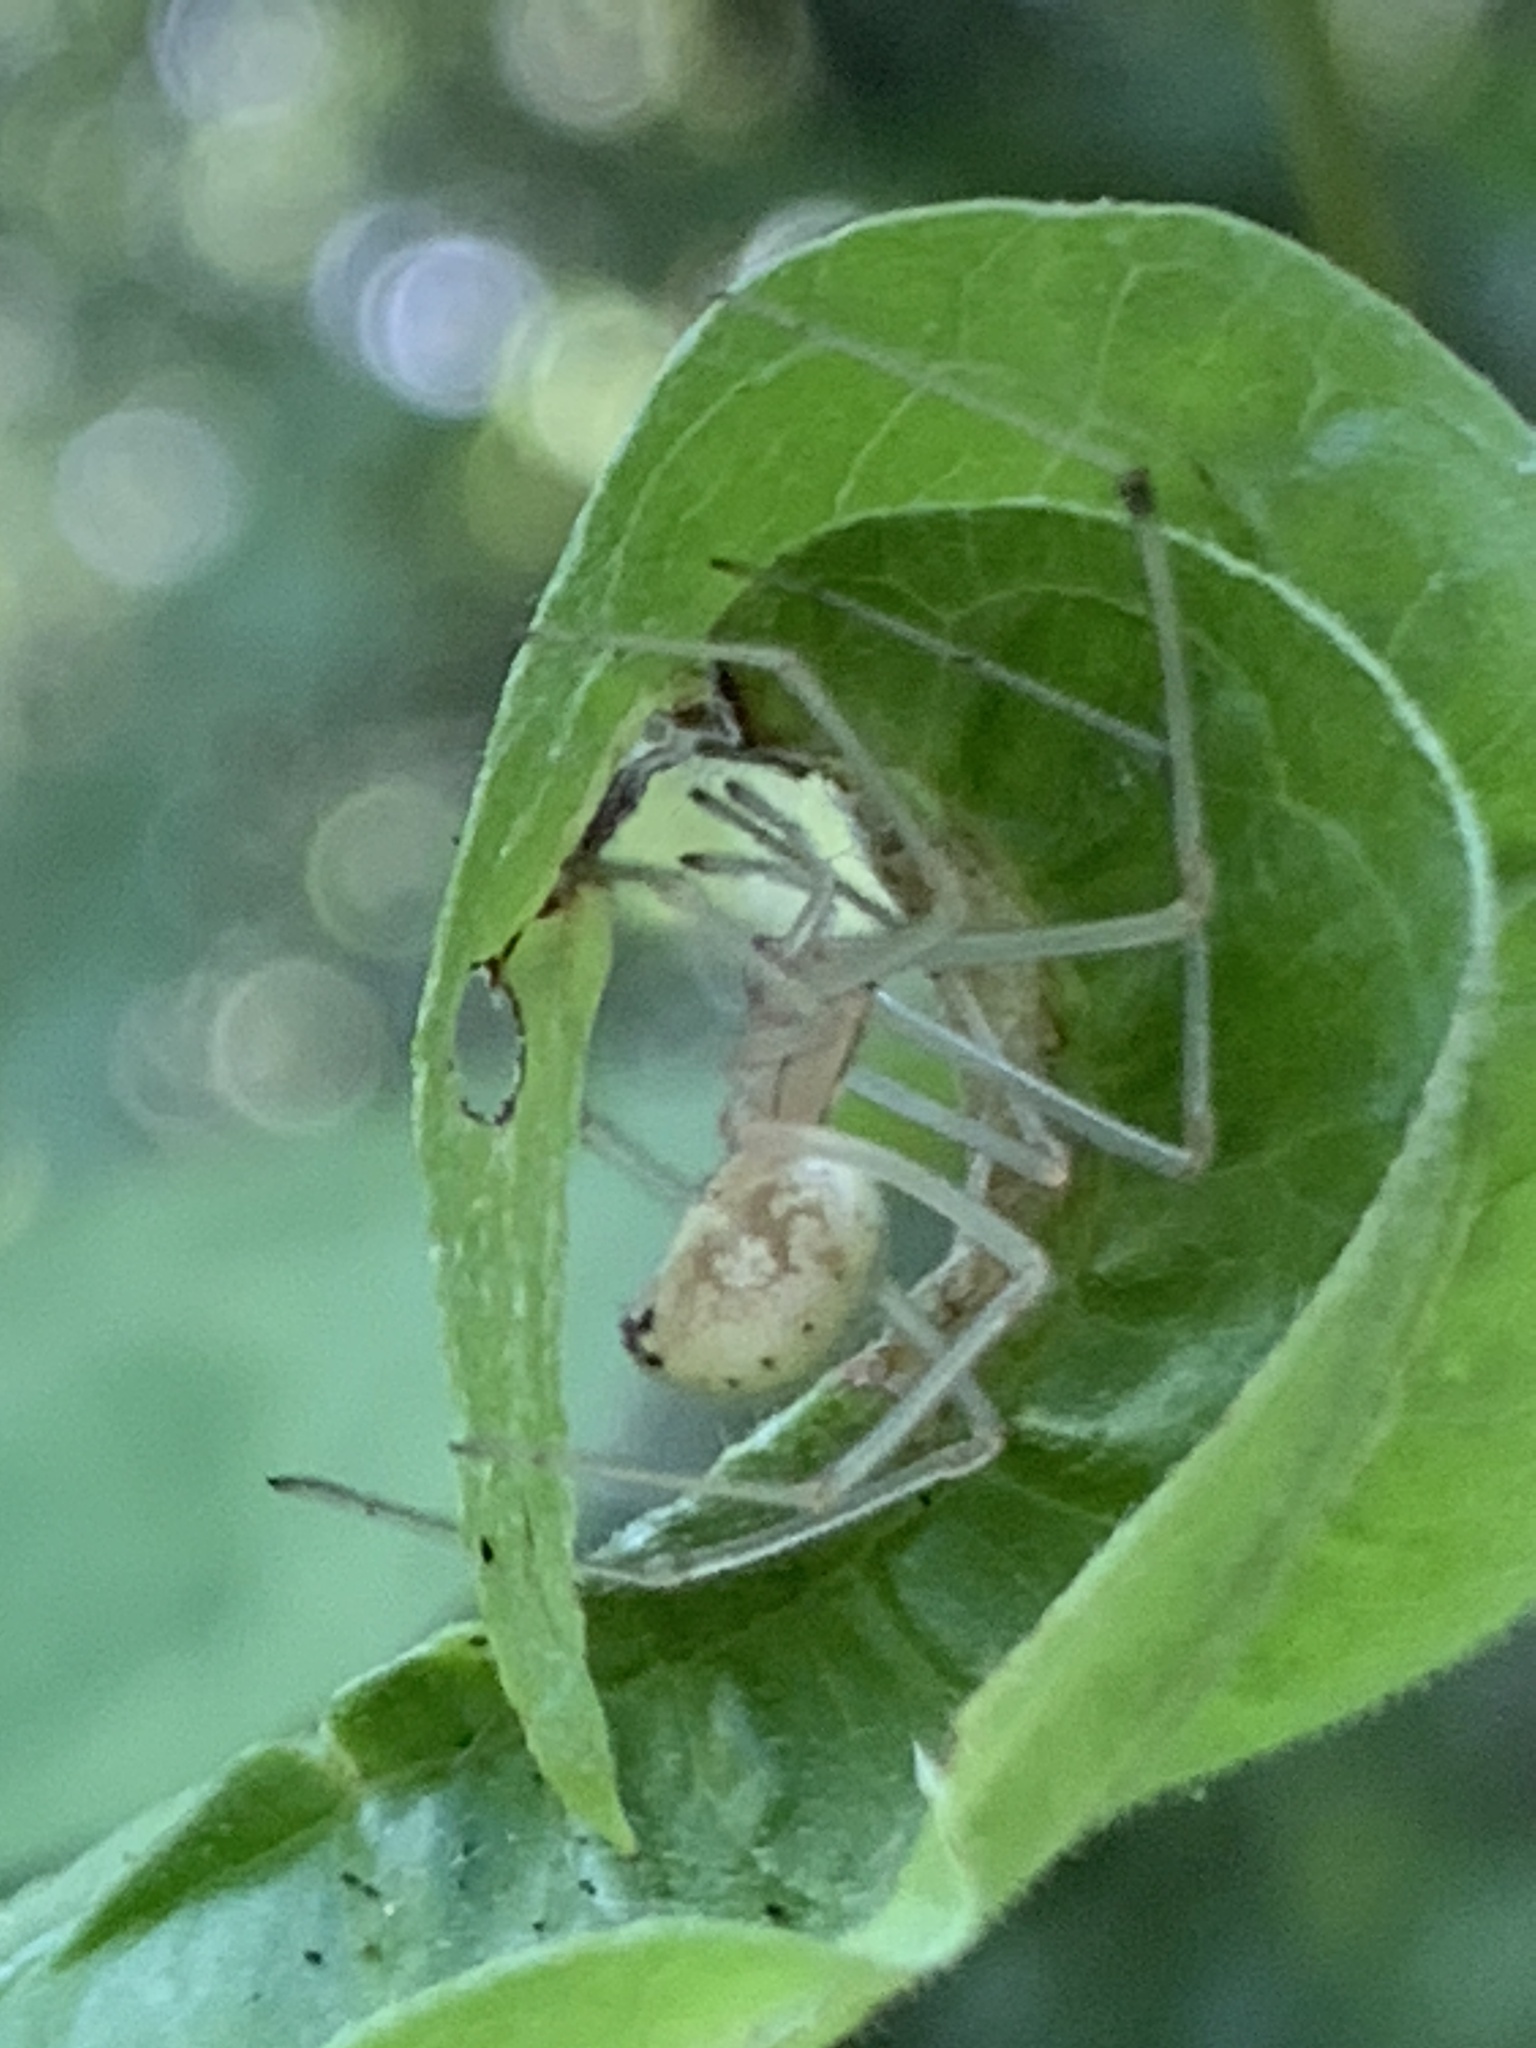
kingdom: Animalia
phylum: Arthropoda
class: Arachnida
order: Araneae
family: Theridiidae
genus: Enoplognatha
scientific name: Enoplognatha ovata
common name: Common candy-striped spider
